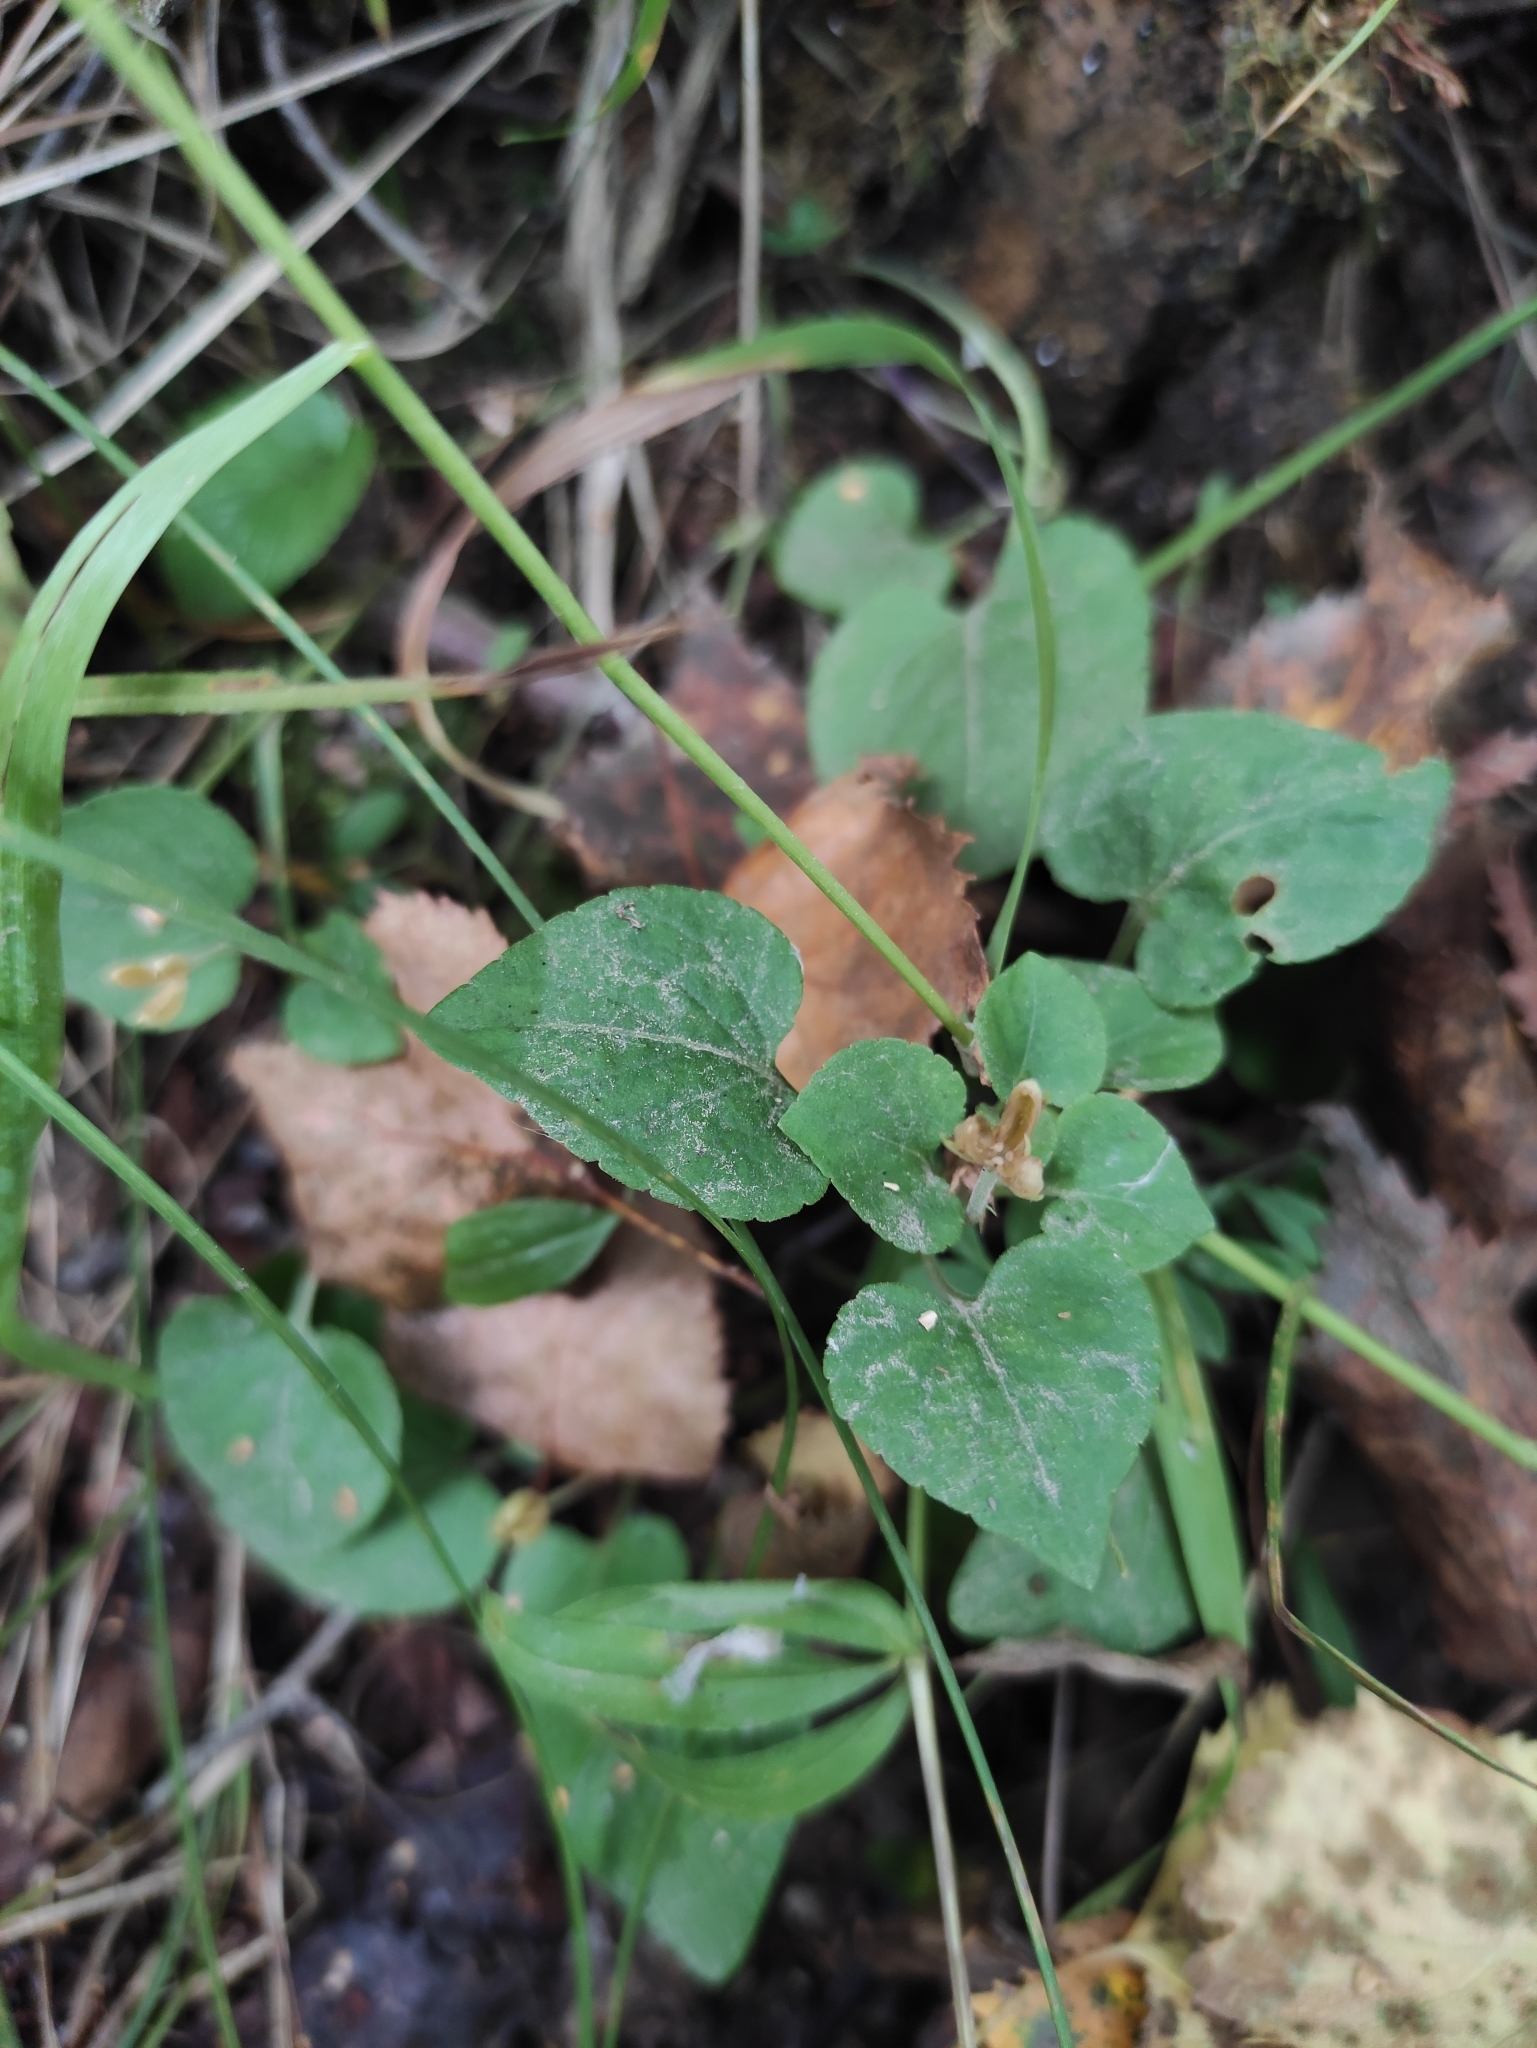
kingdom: Plantae
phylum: Tracheophyta
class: Magnoliopsida
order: Malpighiales
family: Violaceae
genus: Viola
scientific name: Viola rupestris
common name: Teesdale violet
